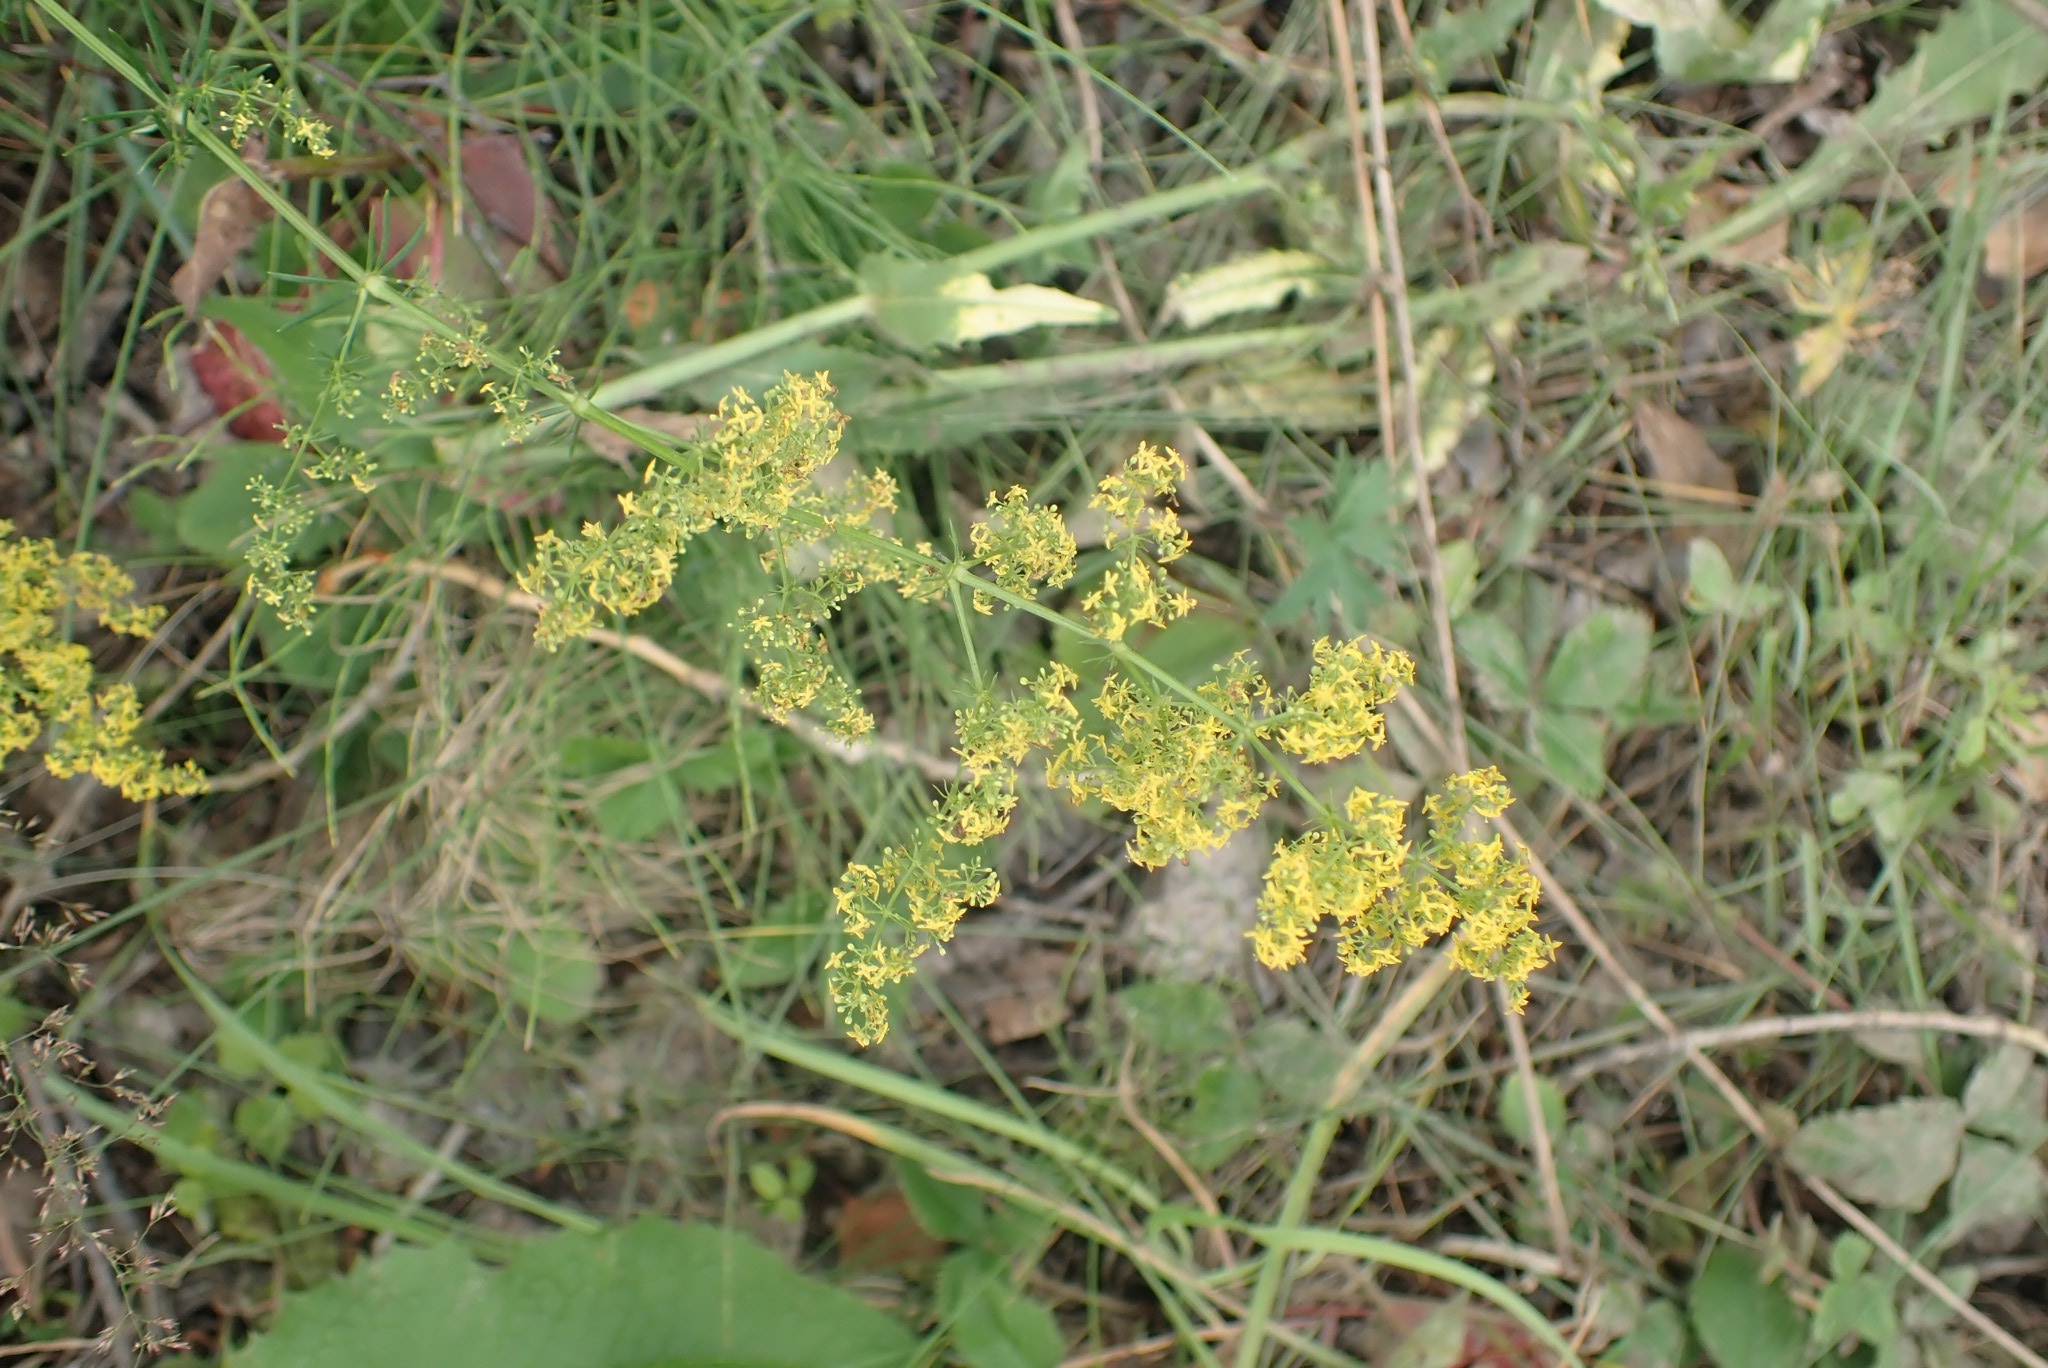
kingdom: Plantae
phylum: Tracheophyta
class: Magnoliopsida
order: Gentianales
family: Rubiaceae
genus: Galium
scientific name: Galium verum
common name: Lady's bedstraw
